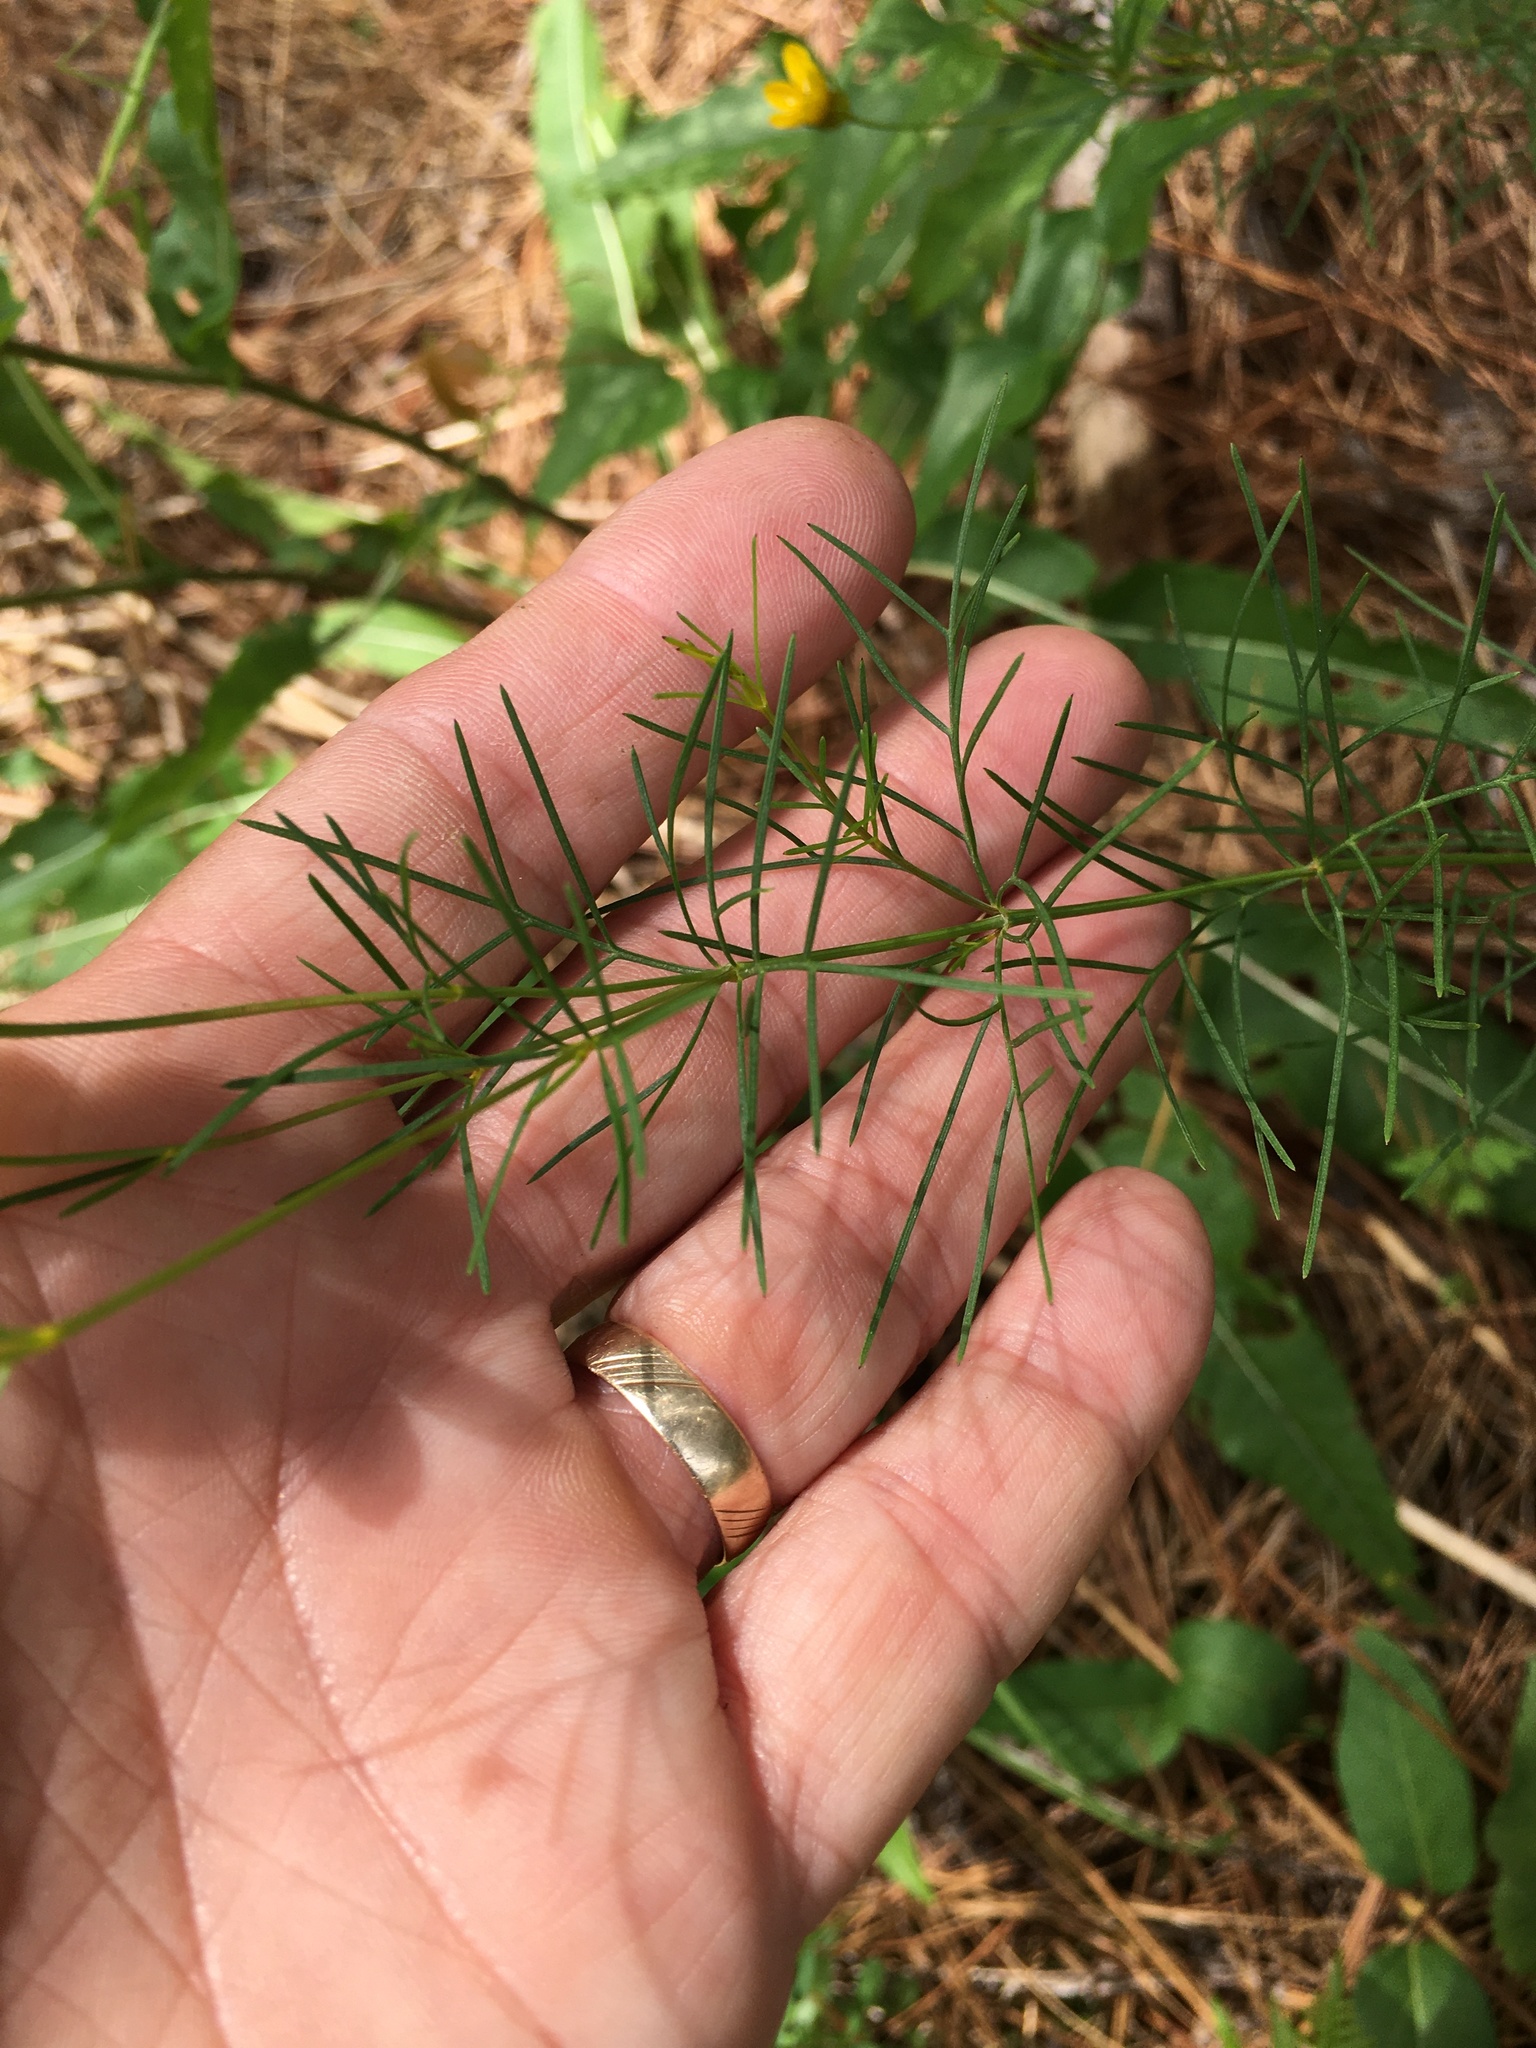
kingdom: Plantae
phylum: Tracheophyta
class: Magnoliopsida
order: Asterales
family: Asteraceae
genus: Coreopsis
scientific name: Coreopsis verticillata
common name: Whorled tickseed
